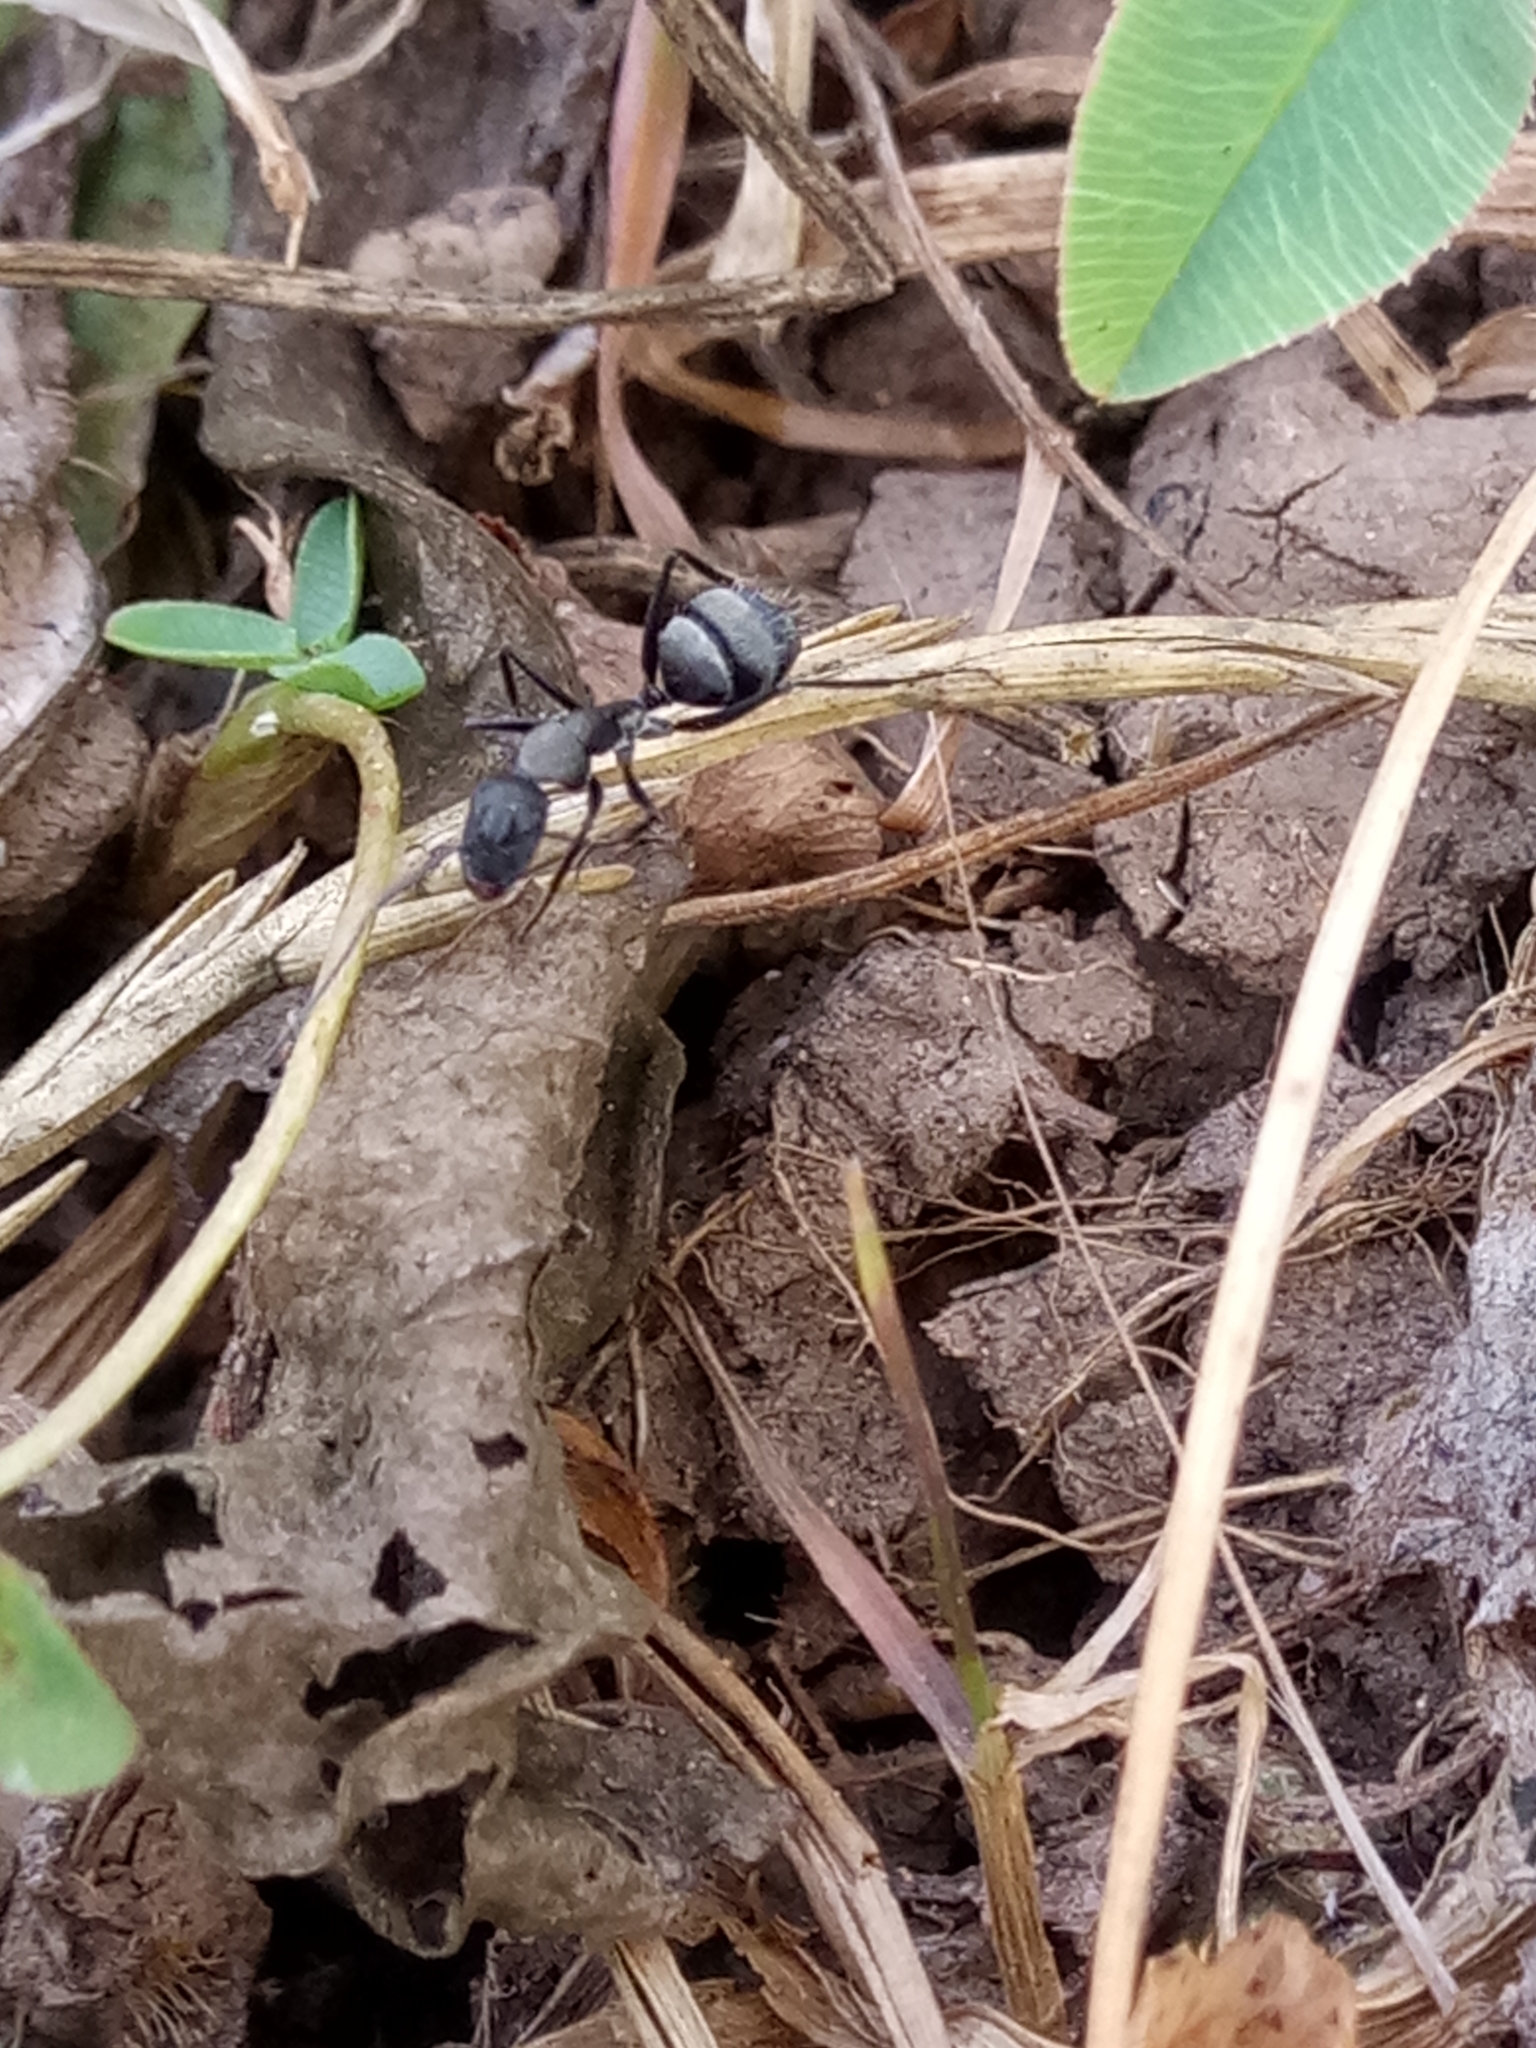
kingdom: Animalia
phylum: Arthropoda
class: Insecta
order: Hymenoptera
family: Formicidae
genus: Camponotus
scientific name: Camponotus micans
